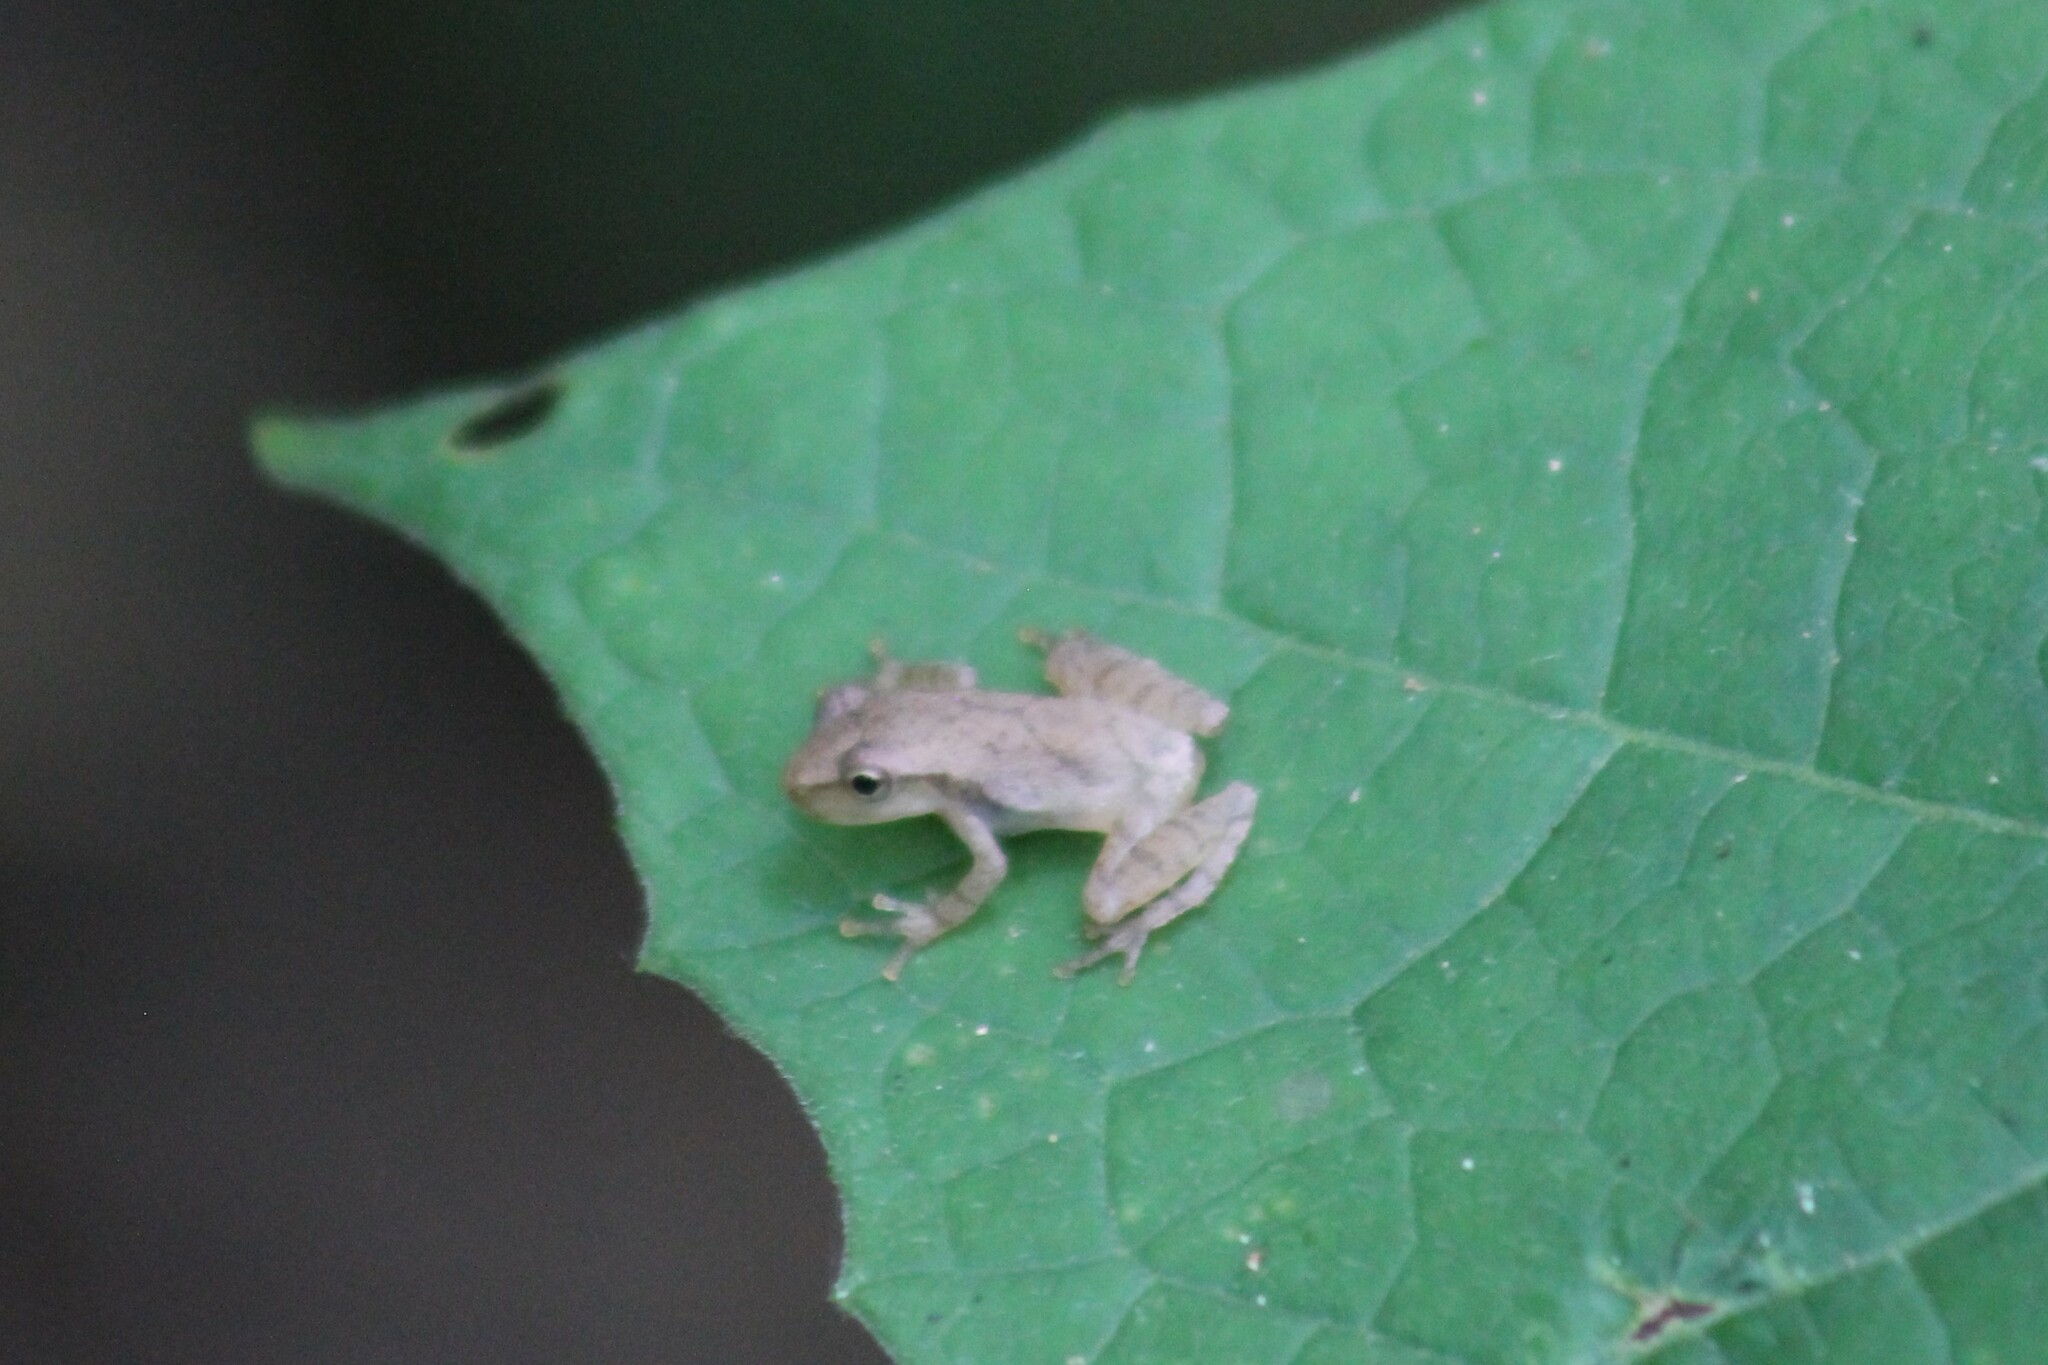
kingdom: Animalia
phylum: Chordata
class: Amphibia
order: Anura
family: Hylidae
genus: Pseudacris
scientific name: Pseudacris crucifer
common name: Spring peeper
